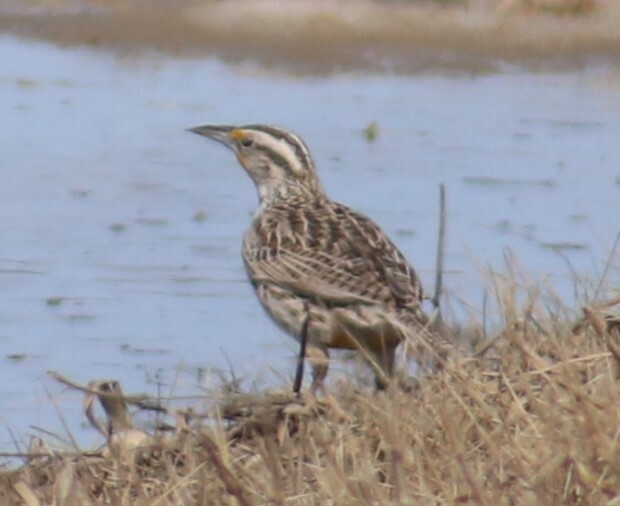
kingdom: Animalia
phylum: Chordata
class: Aves
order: Passeriformes
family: Icteridae
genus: Sturnella
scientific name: Sturnella neglecta
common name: Western meadowlark
